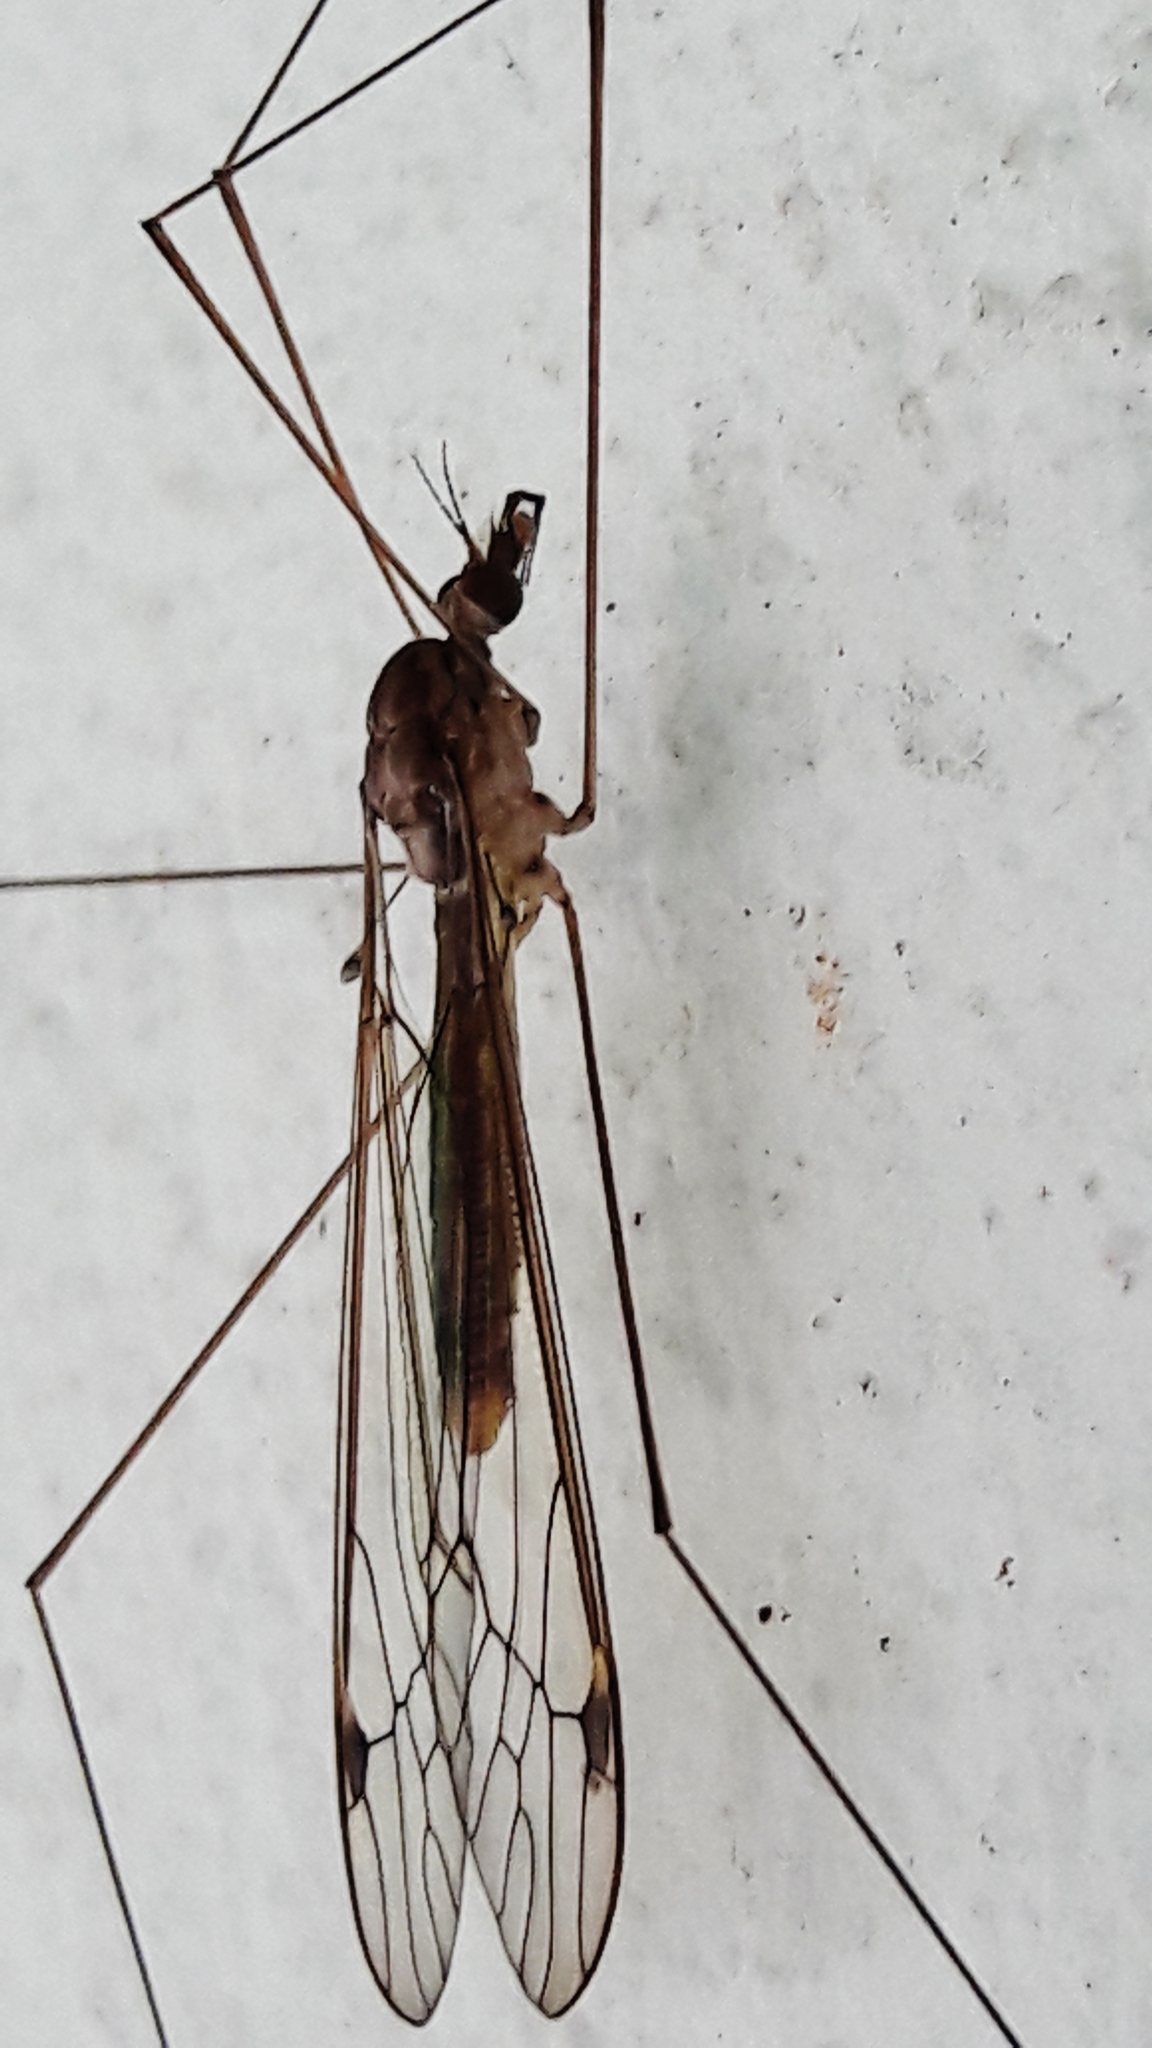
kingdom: Animalia
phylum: Arthropoda
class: Insecta
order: Diptera
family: Tipulidae
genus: Maekistocera
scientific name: Maekistocera longipennis
